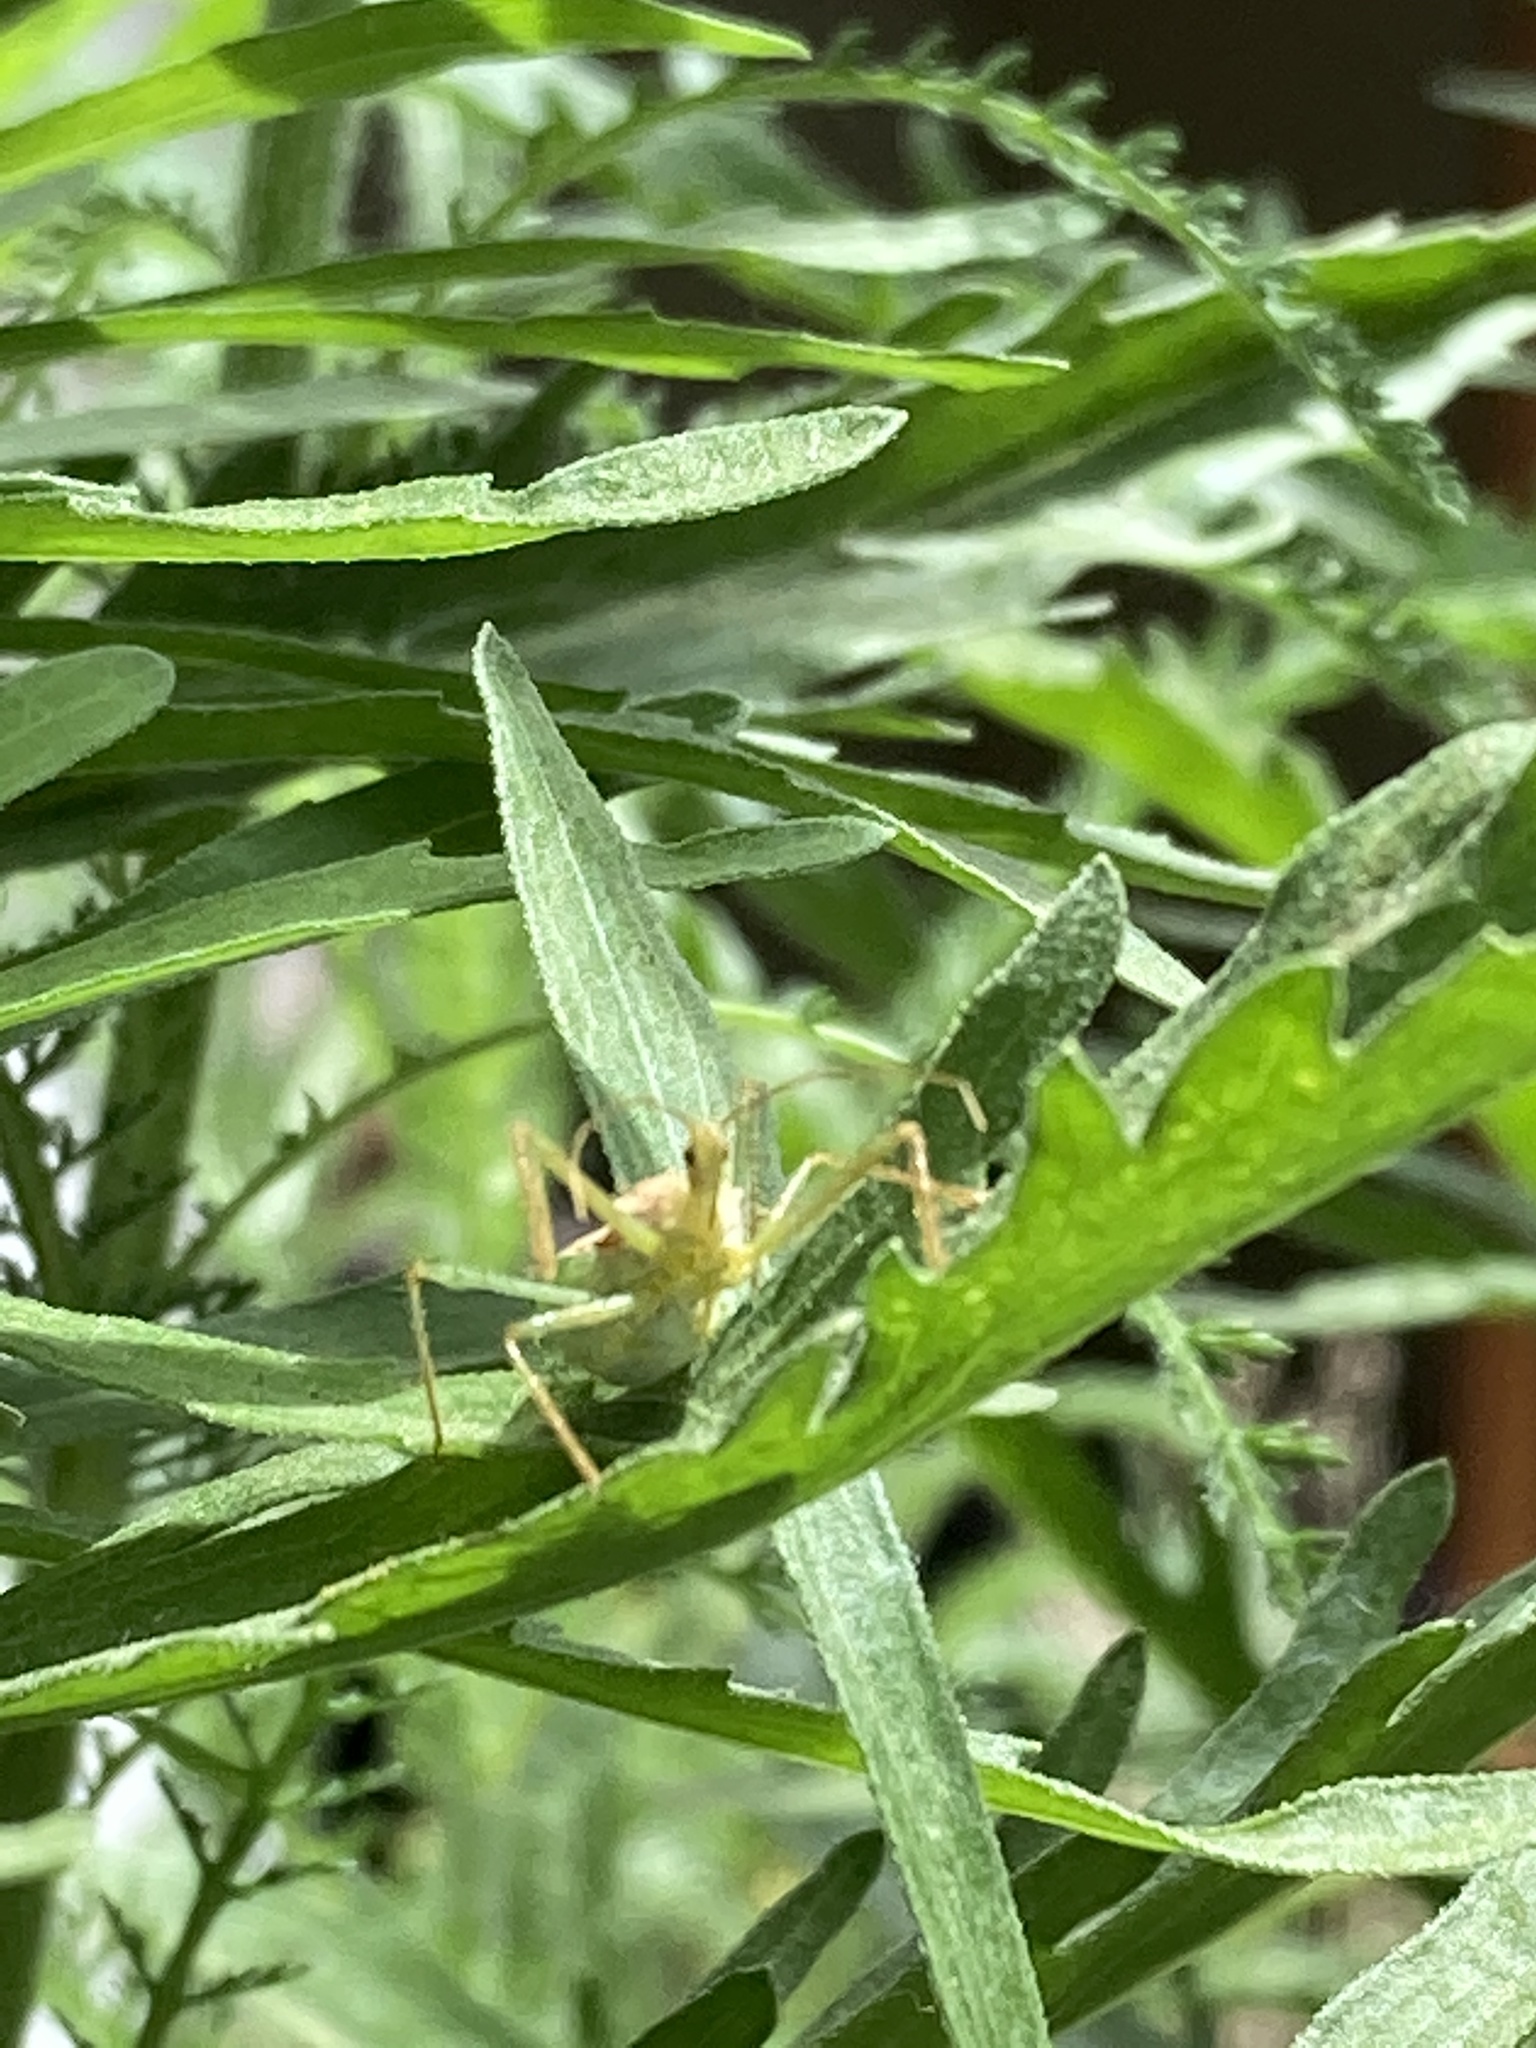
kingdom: Animalia
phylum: Arthropoda
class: Insecta
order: Hemiptera
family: Reduviidae
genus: Zelus
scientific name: Zelus renardii
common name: Assassin bug
